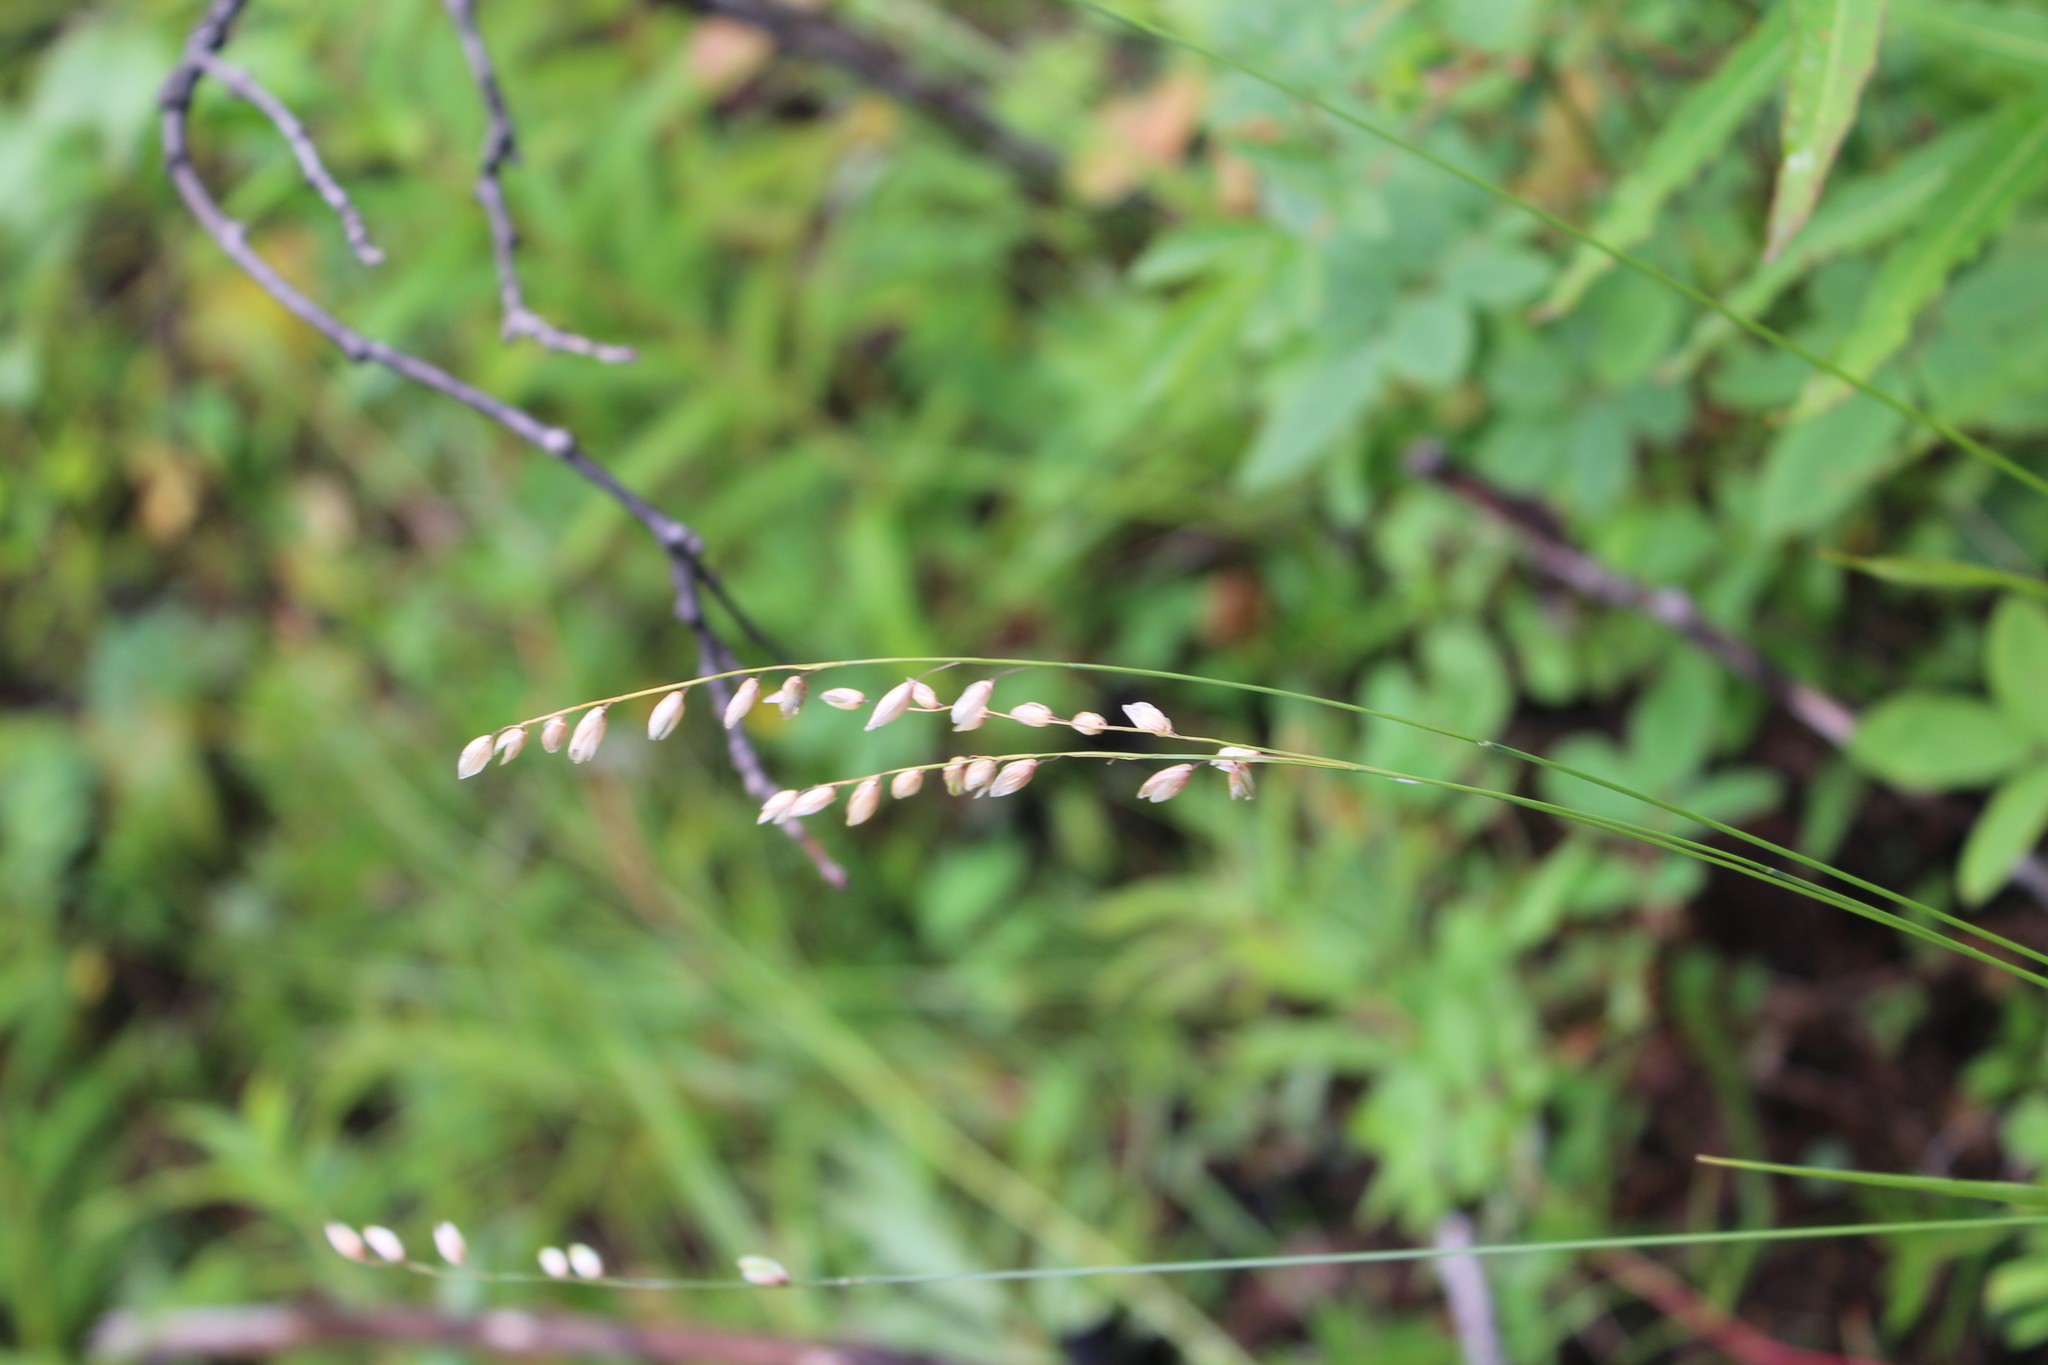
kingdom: Plantae
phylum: Tracheophyta
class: Liliopsida
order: Poales
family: Poaceae
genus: Melica
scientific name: Melica nutans
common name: Mountain melick
